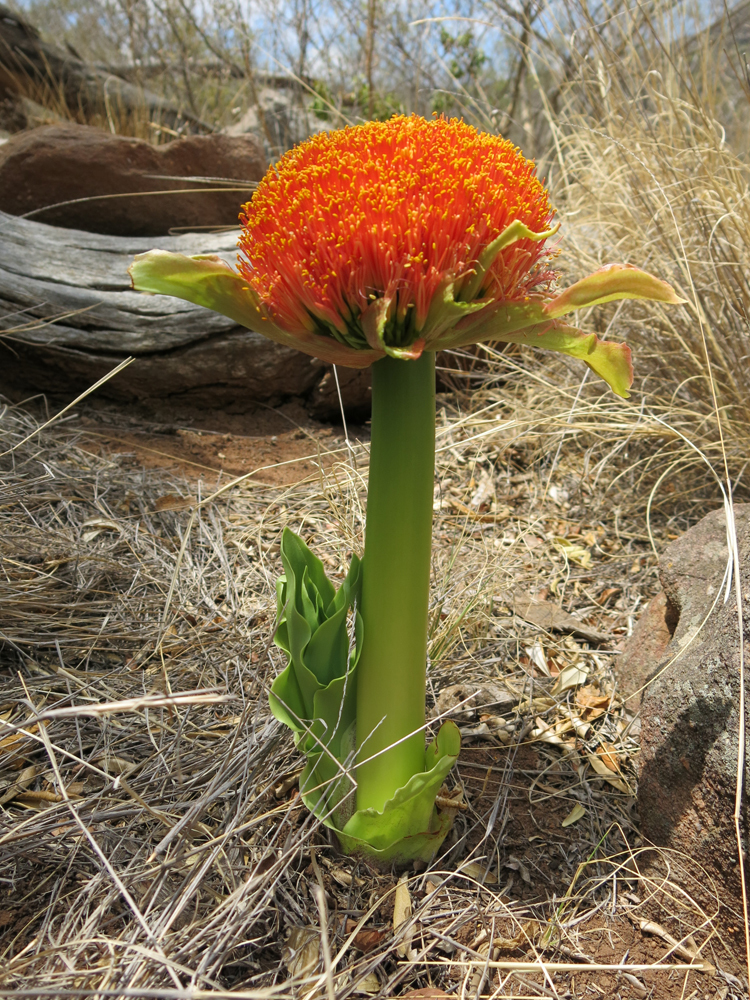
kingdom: Plantae
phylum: Tracheophyta
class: Liliopsida
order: Asparagales
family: Amaryllidaceae
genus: Scadoxus
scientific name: Scadoxus puniceus
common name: Royal-paintbrush
